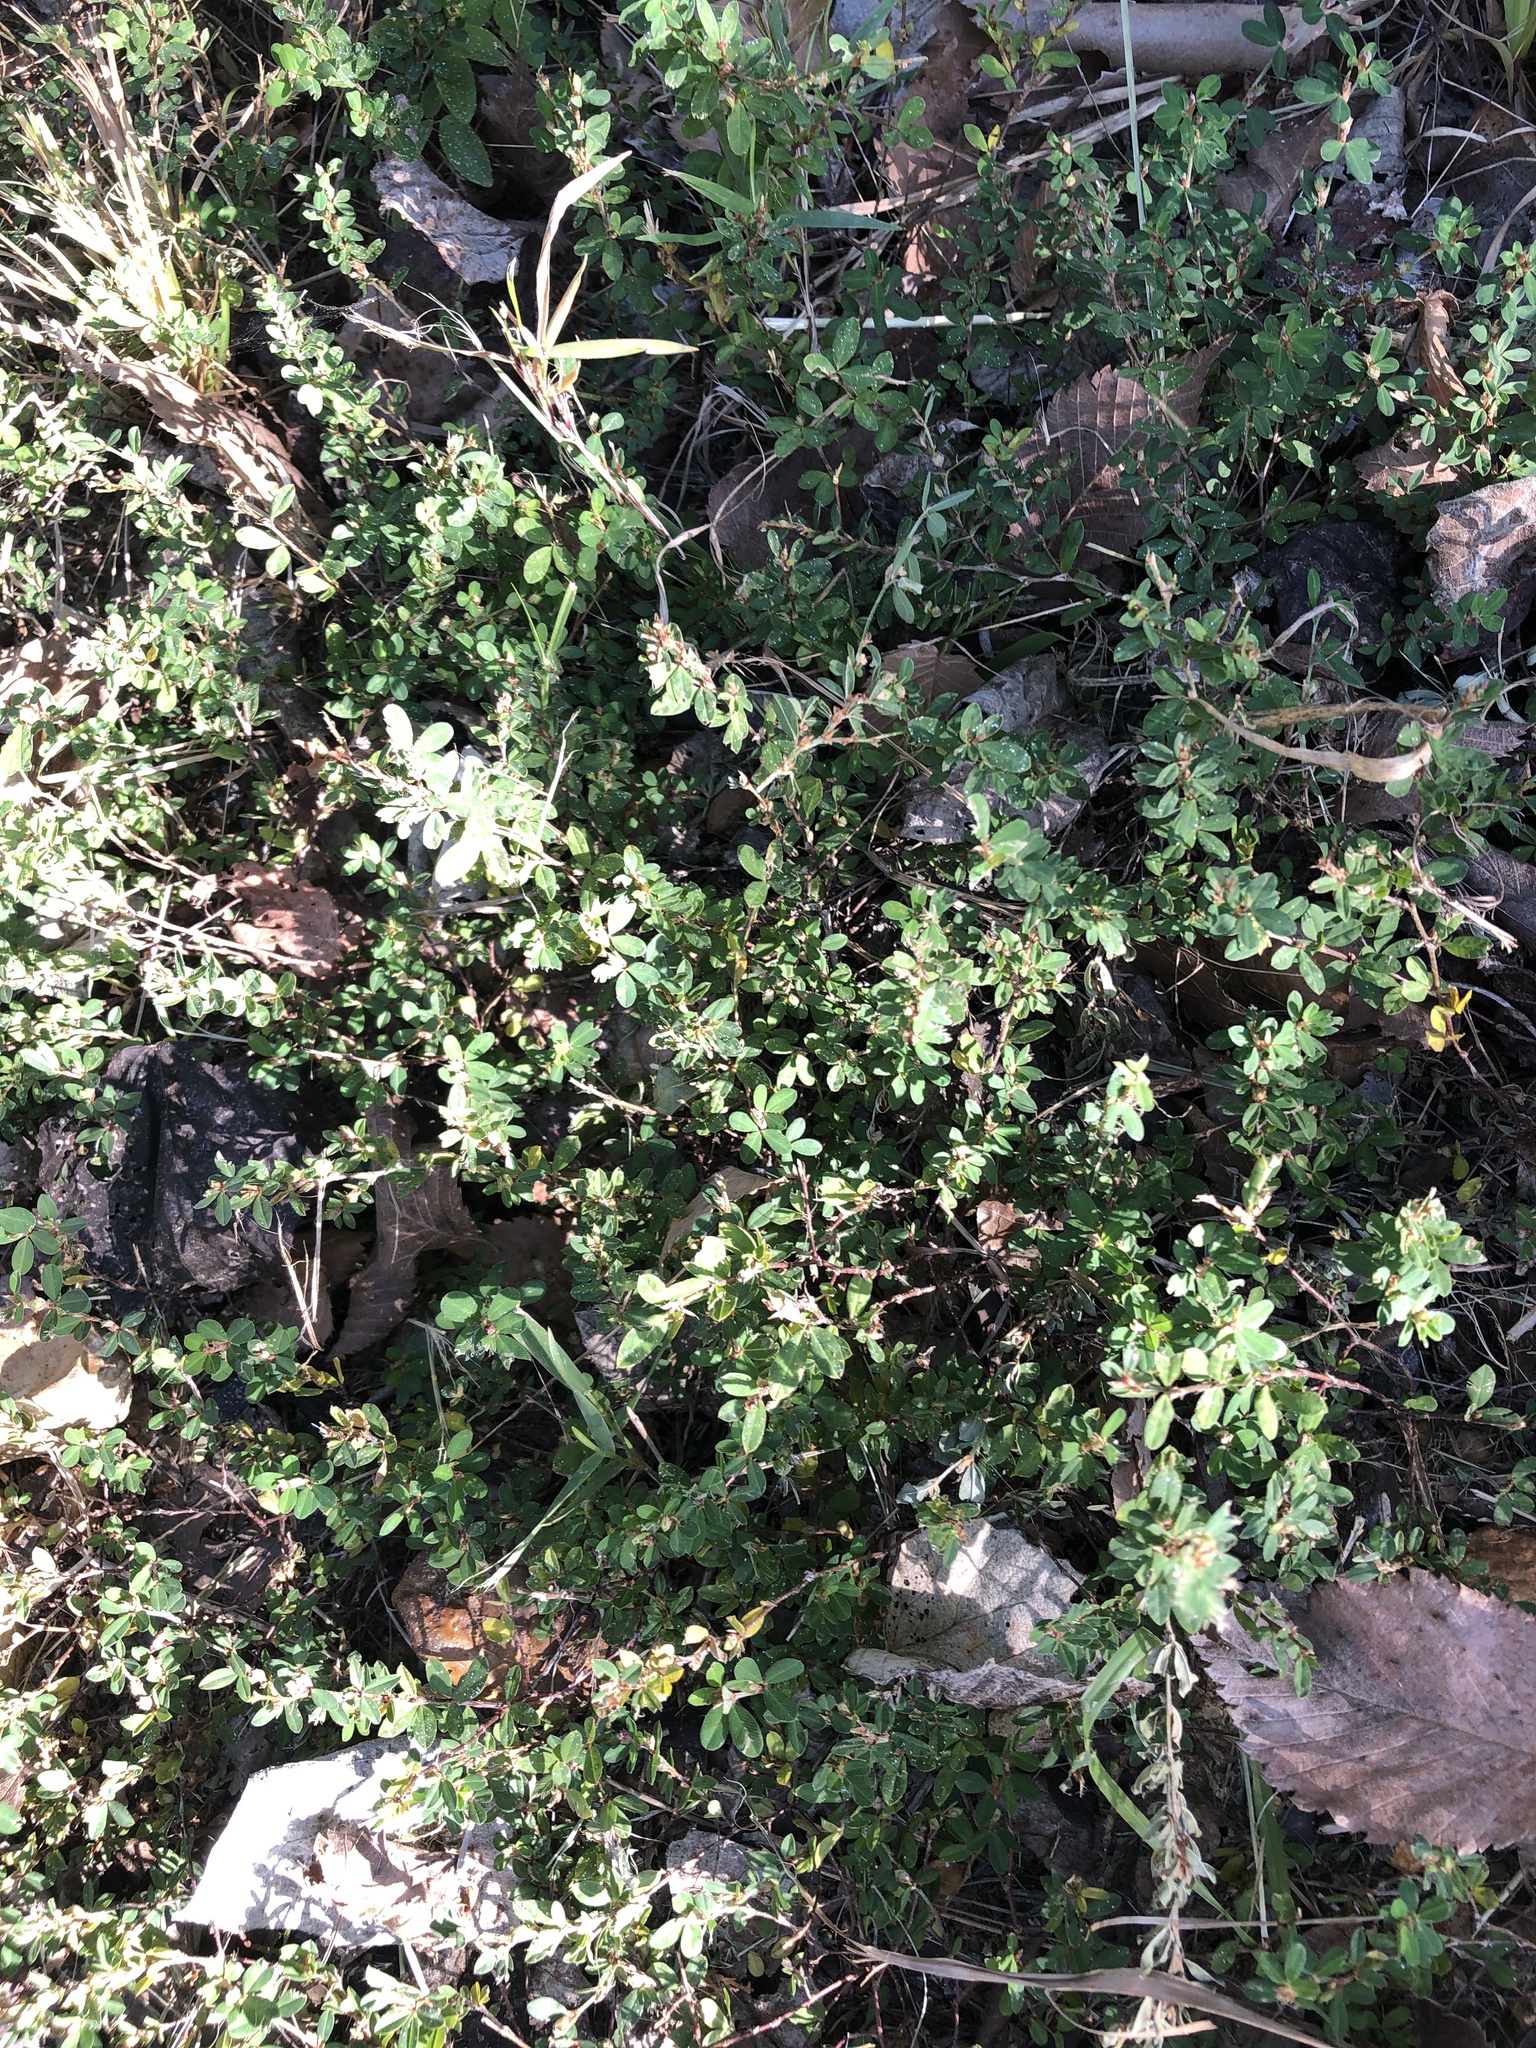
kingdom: Plantae
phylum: Tracheophyta
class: Magnoliopsida
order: Fabales
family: Fabaceae
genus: Kummerowia
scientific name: Kummerowia striata
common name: Japanese clover
